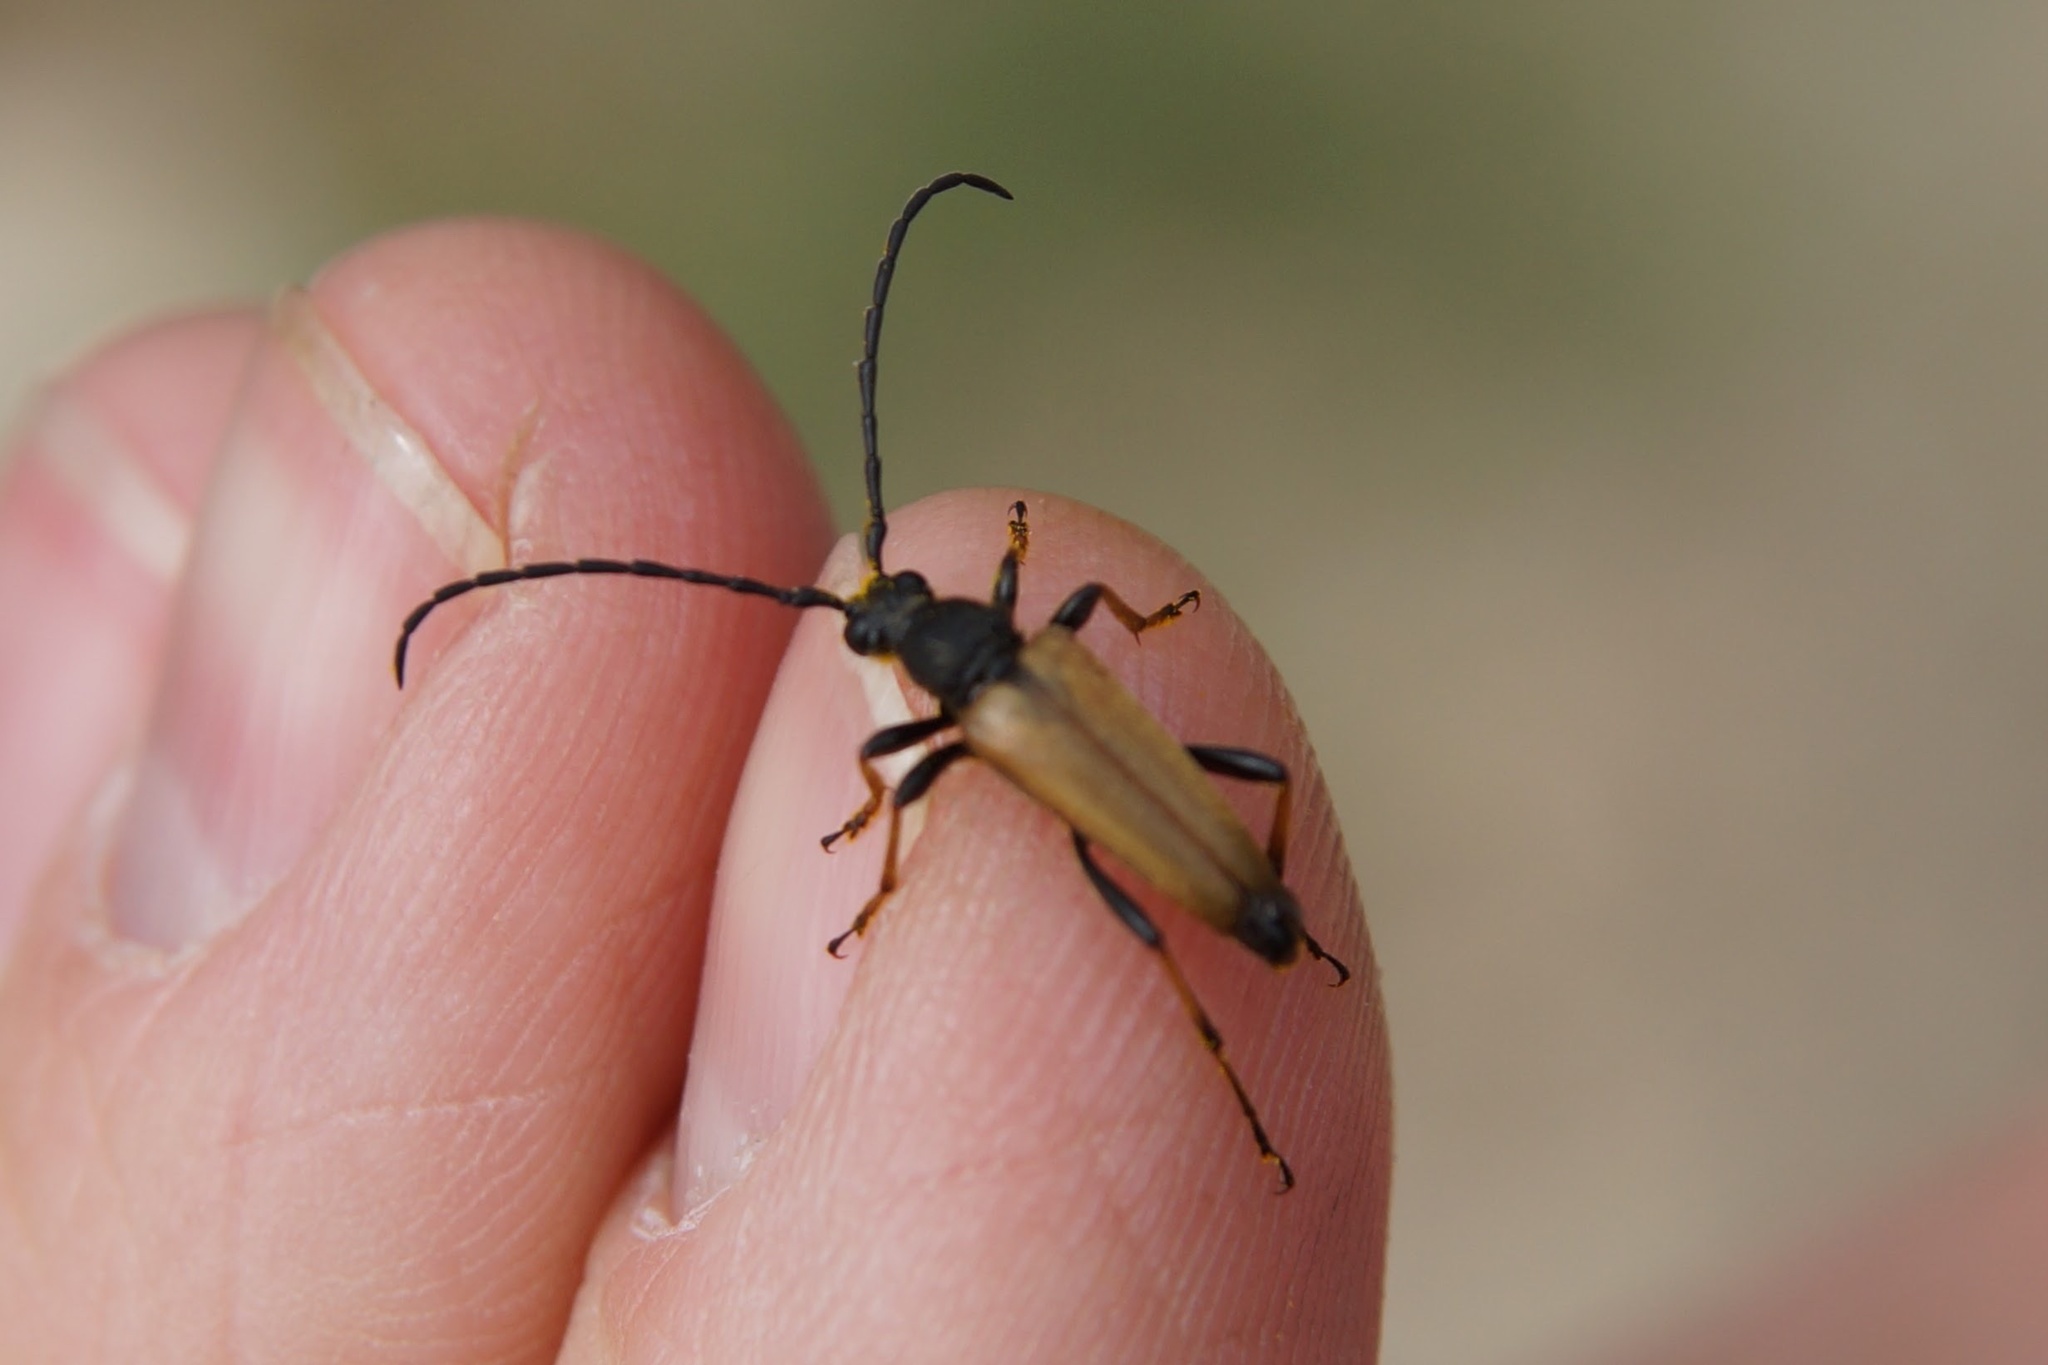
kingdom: Animalia
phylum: Arthropoda
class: Insecta
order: Coleoptera
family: Cerambycidae
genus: Stictoleptura
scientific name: Stictoleptura rubra
